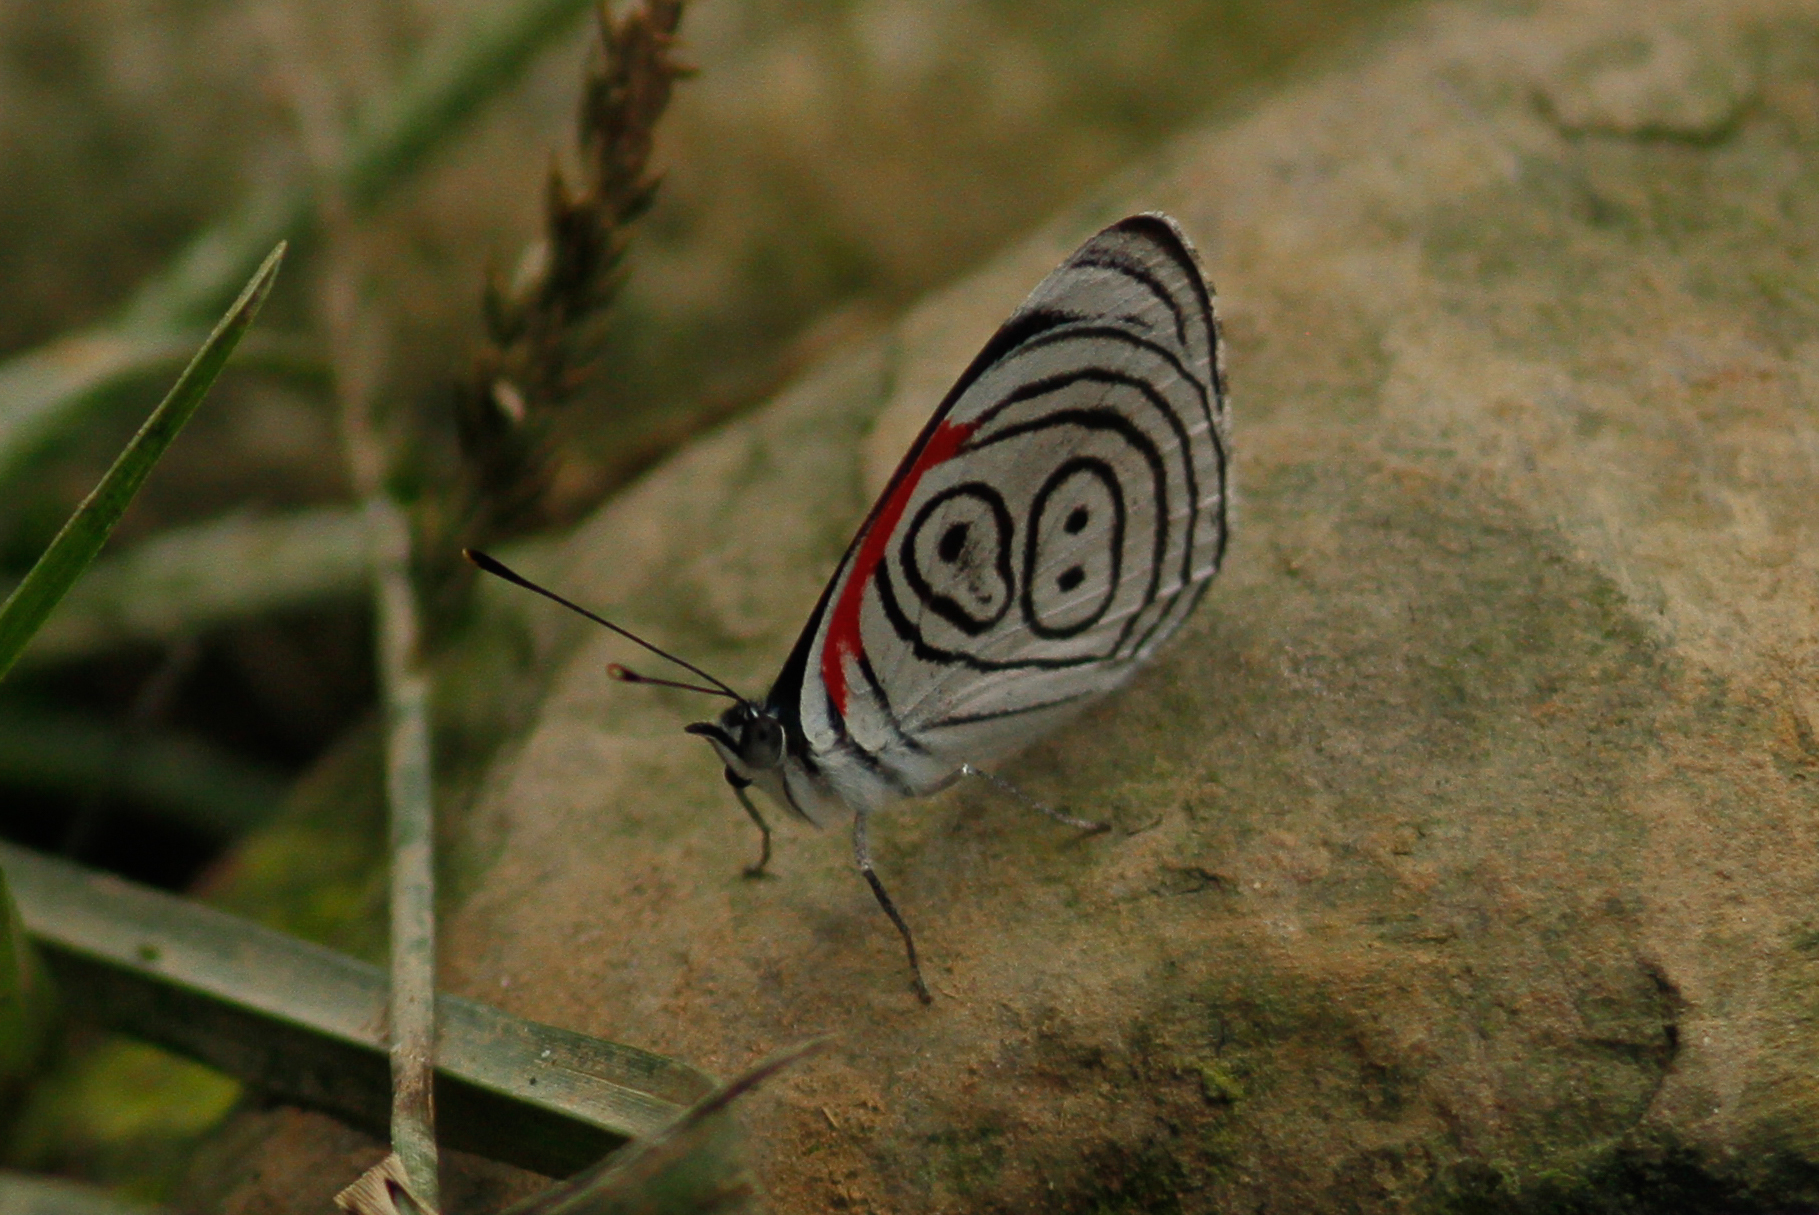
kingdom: Animalia
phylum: Arthropoda
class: Insecta
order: Lepidoptera
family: Nymphalidae
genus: Diaethria
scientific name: Diaethria clymena
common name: Widespread eighty-eight
